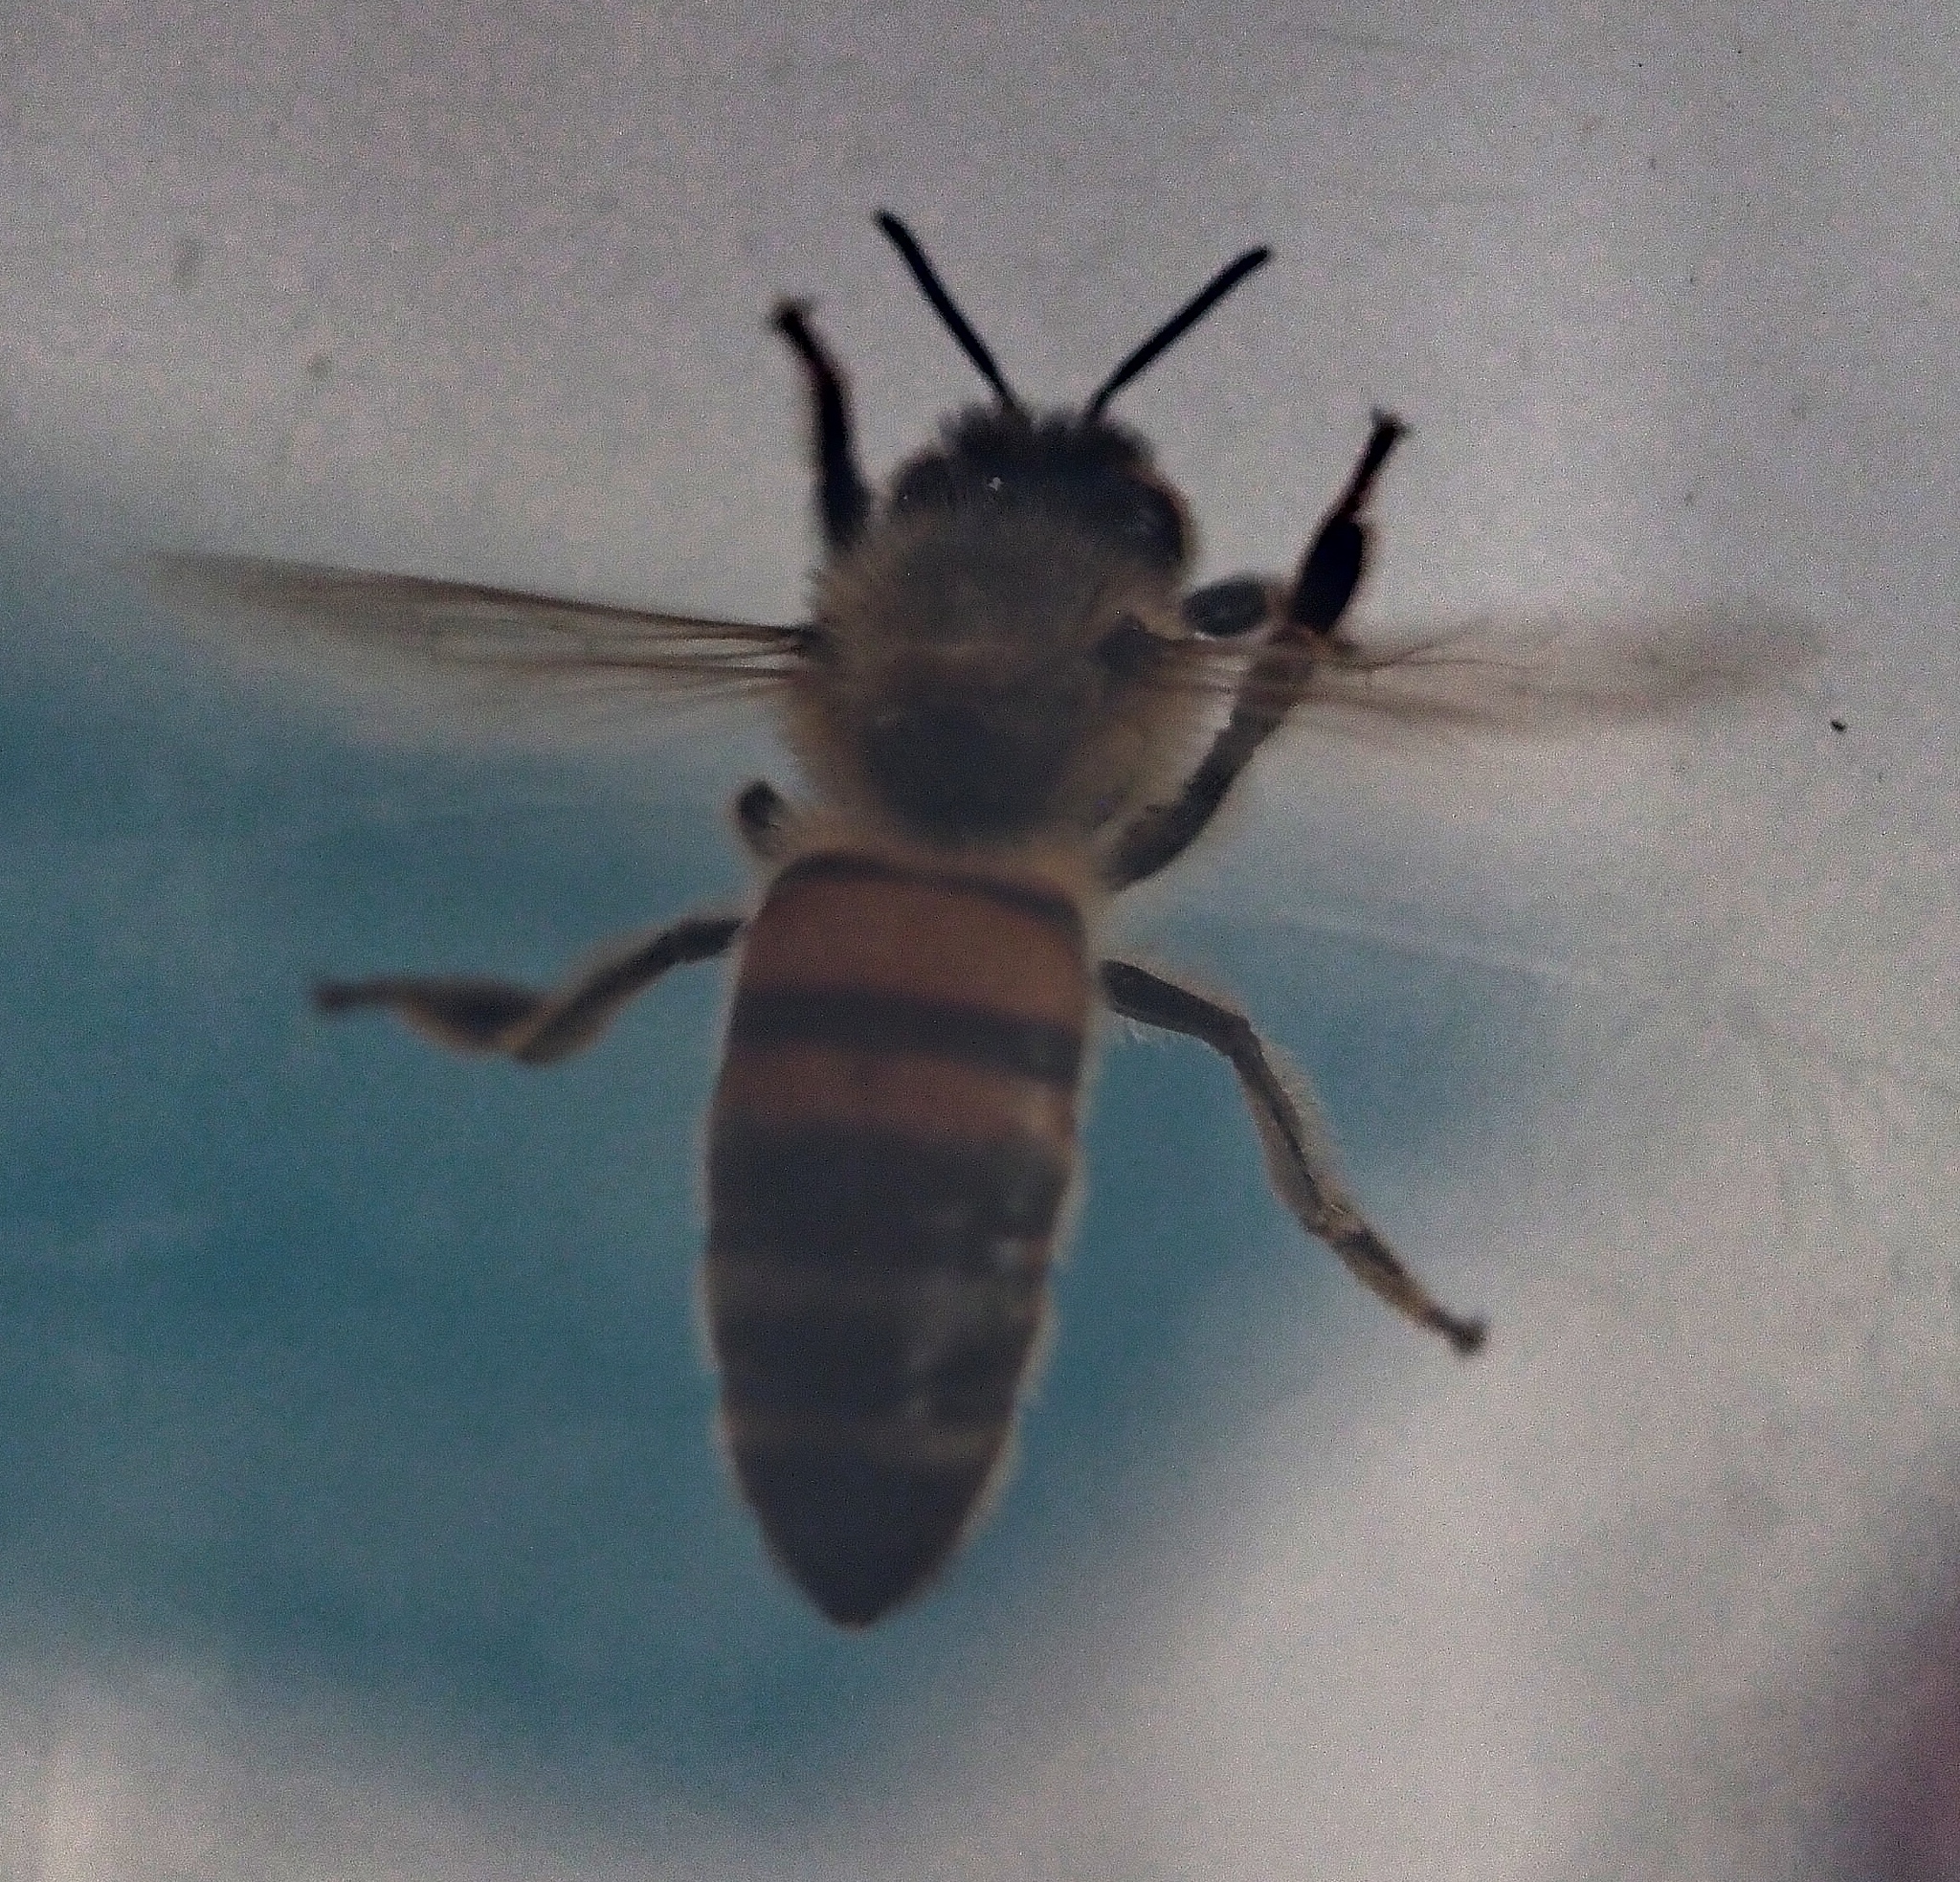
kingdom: Animalia
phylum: Arthropoda
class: Insecta
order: Hymenoptera
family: Apidae
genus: Apis
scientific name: Apis mellifera
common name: Honey bee
